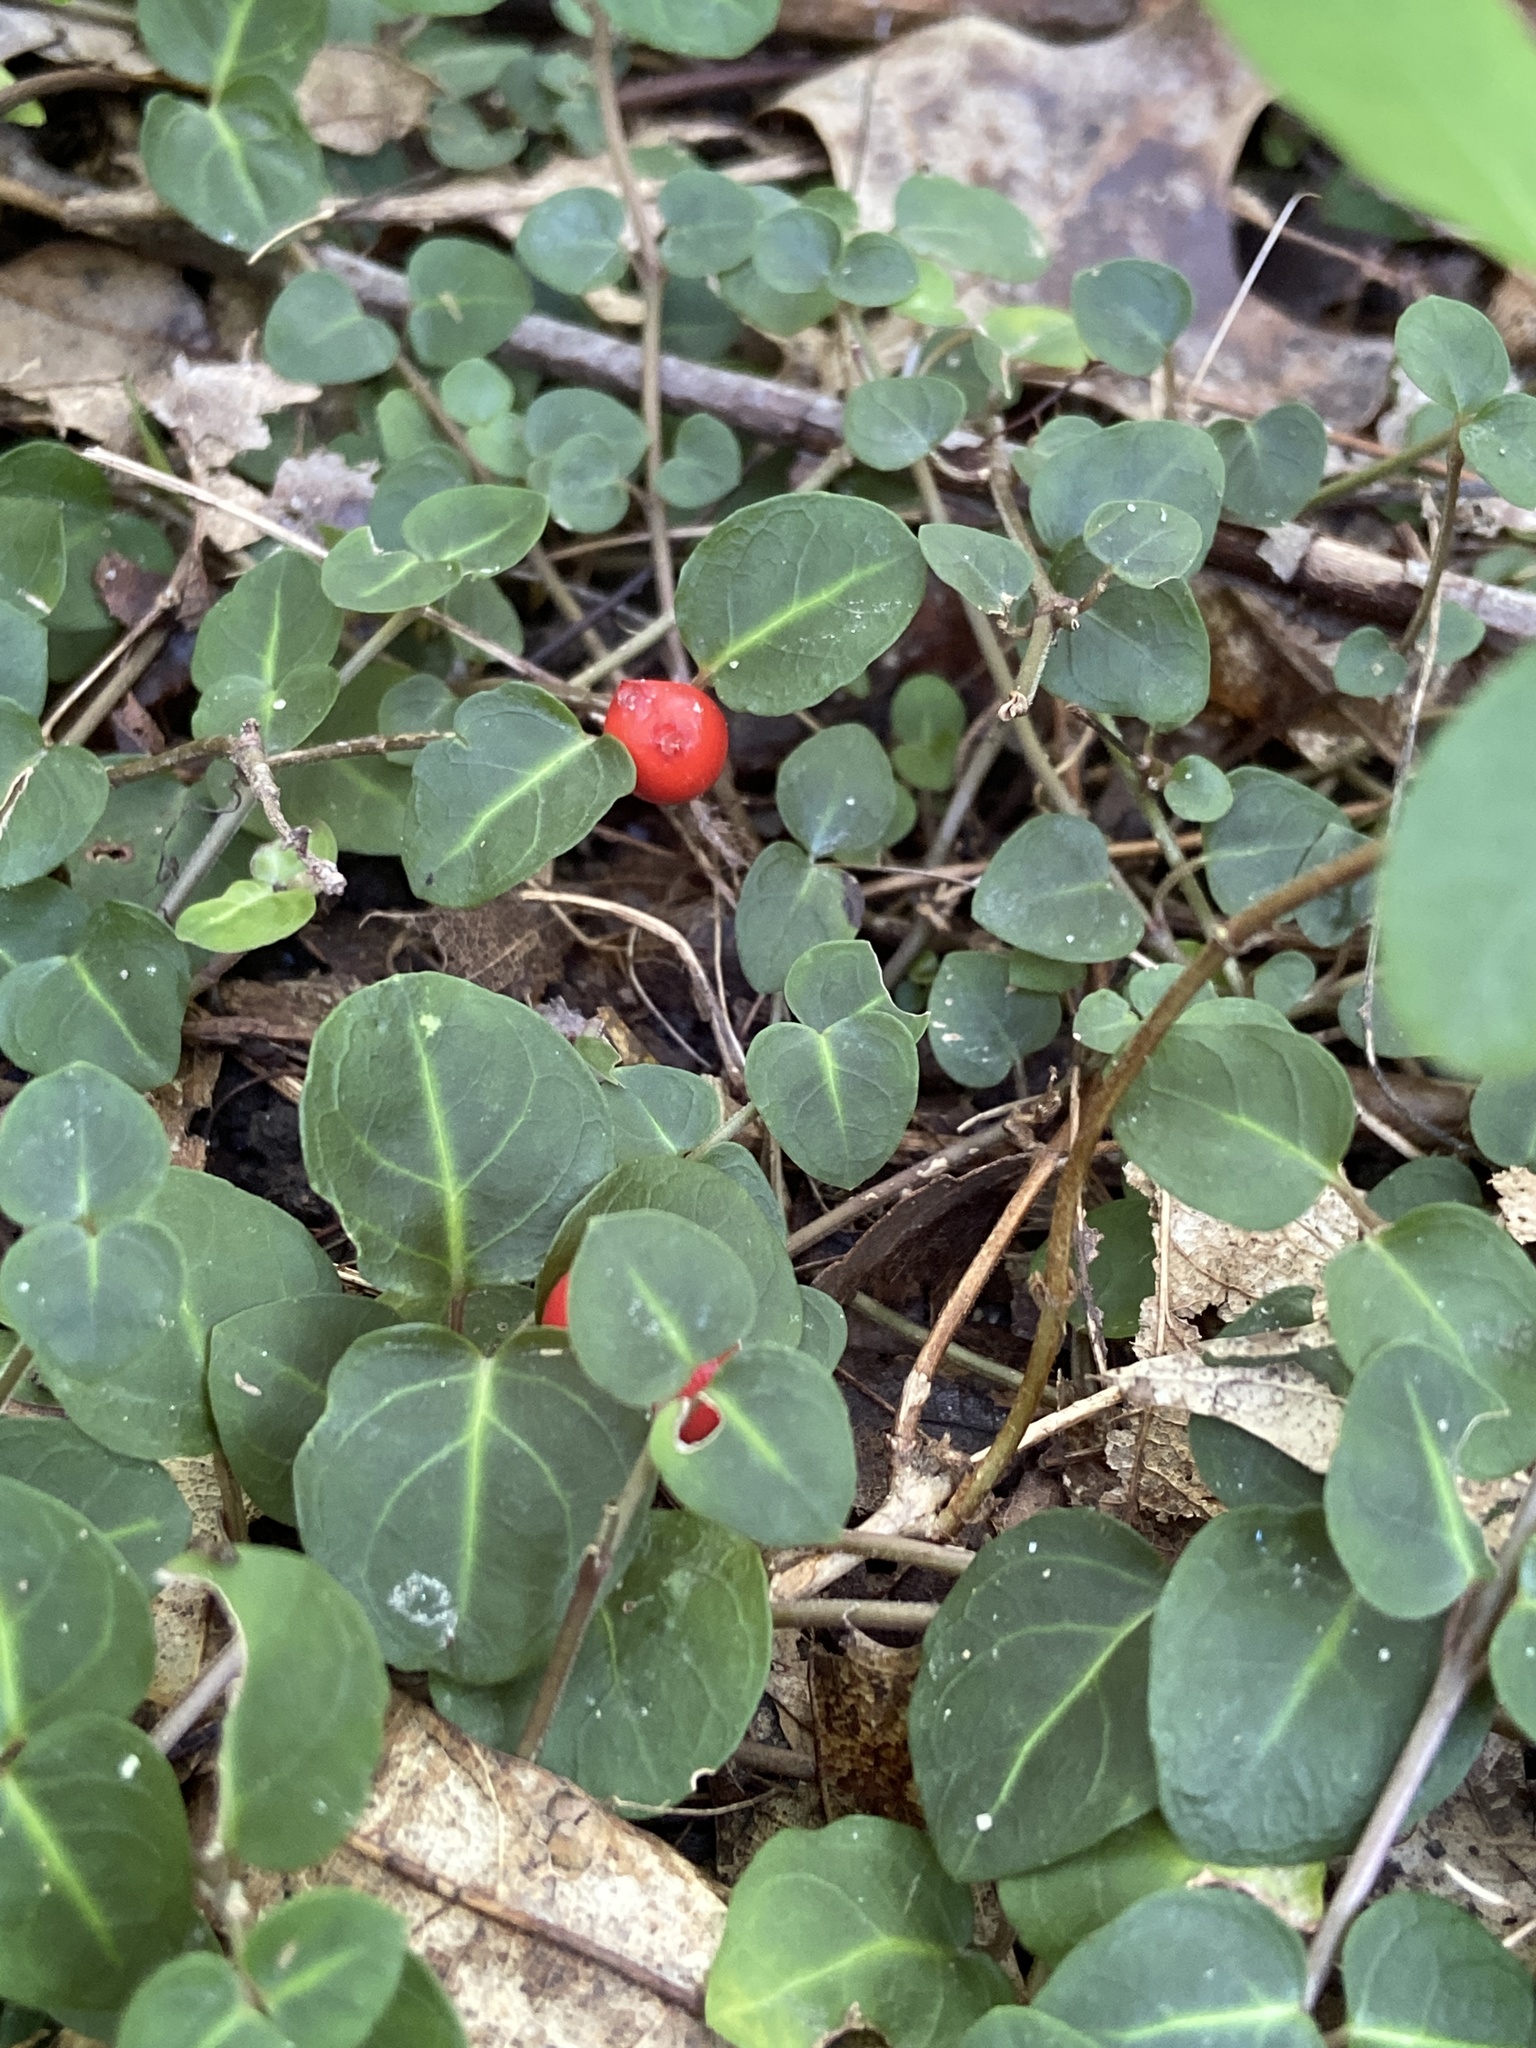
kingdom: Plantae
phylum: Tracheophyta
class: Magnoliopsida
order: Gentianales
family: Rubiaceae
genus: Mitchella
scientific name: Mitchella repens
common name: Partridge-berry
